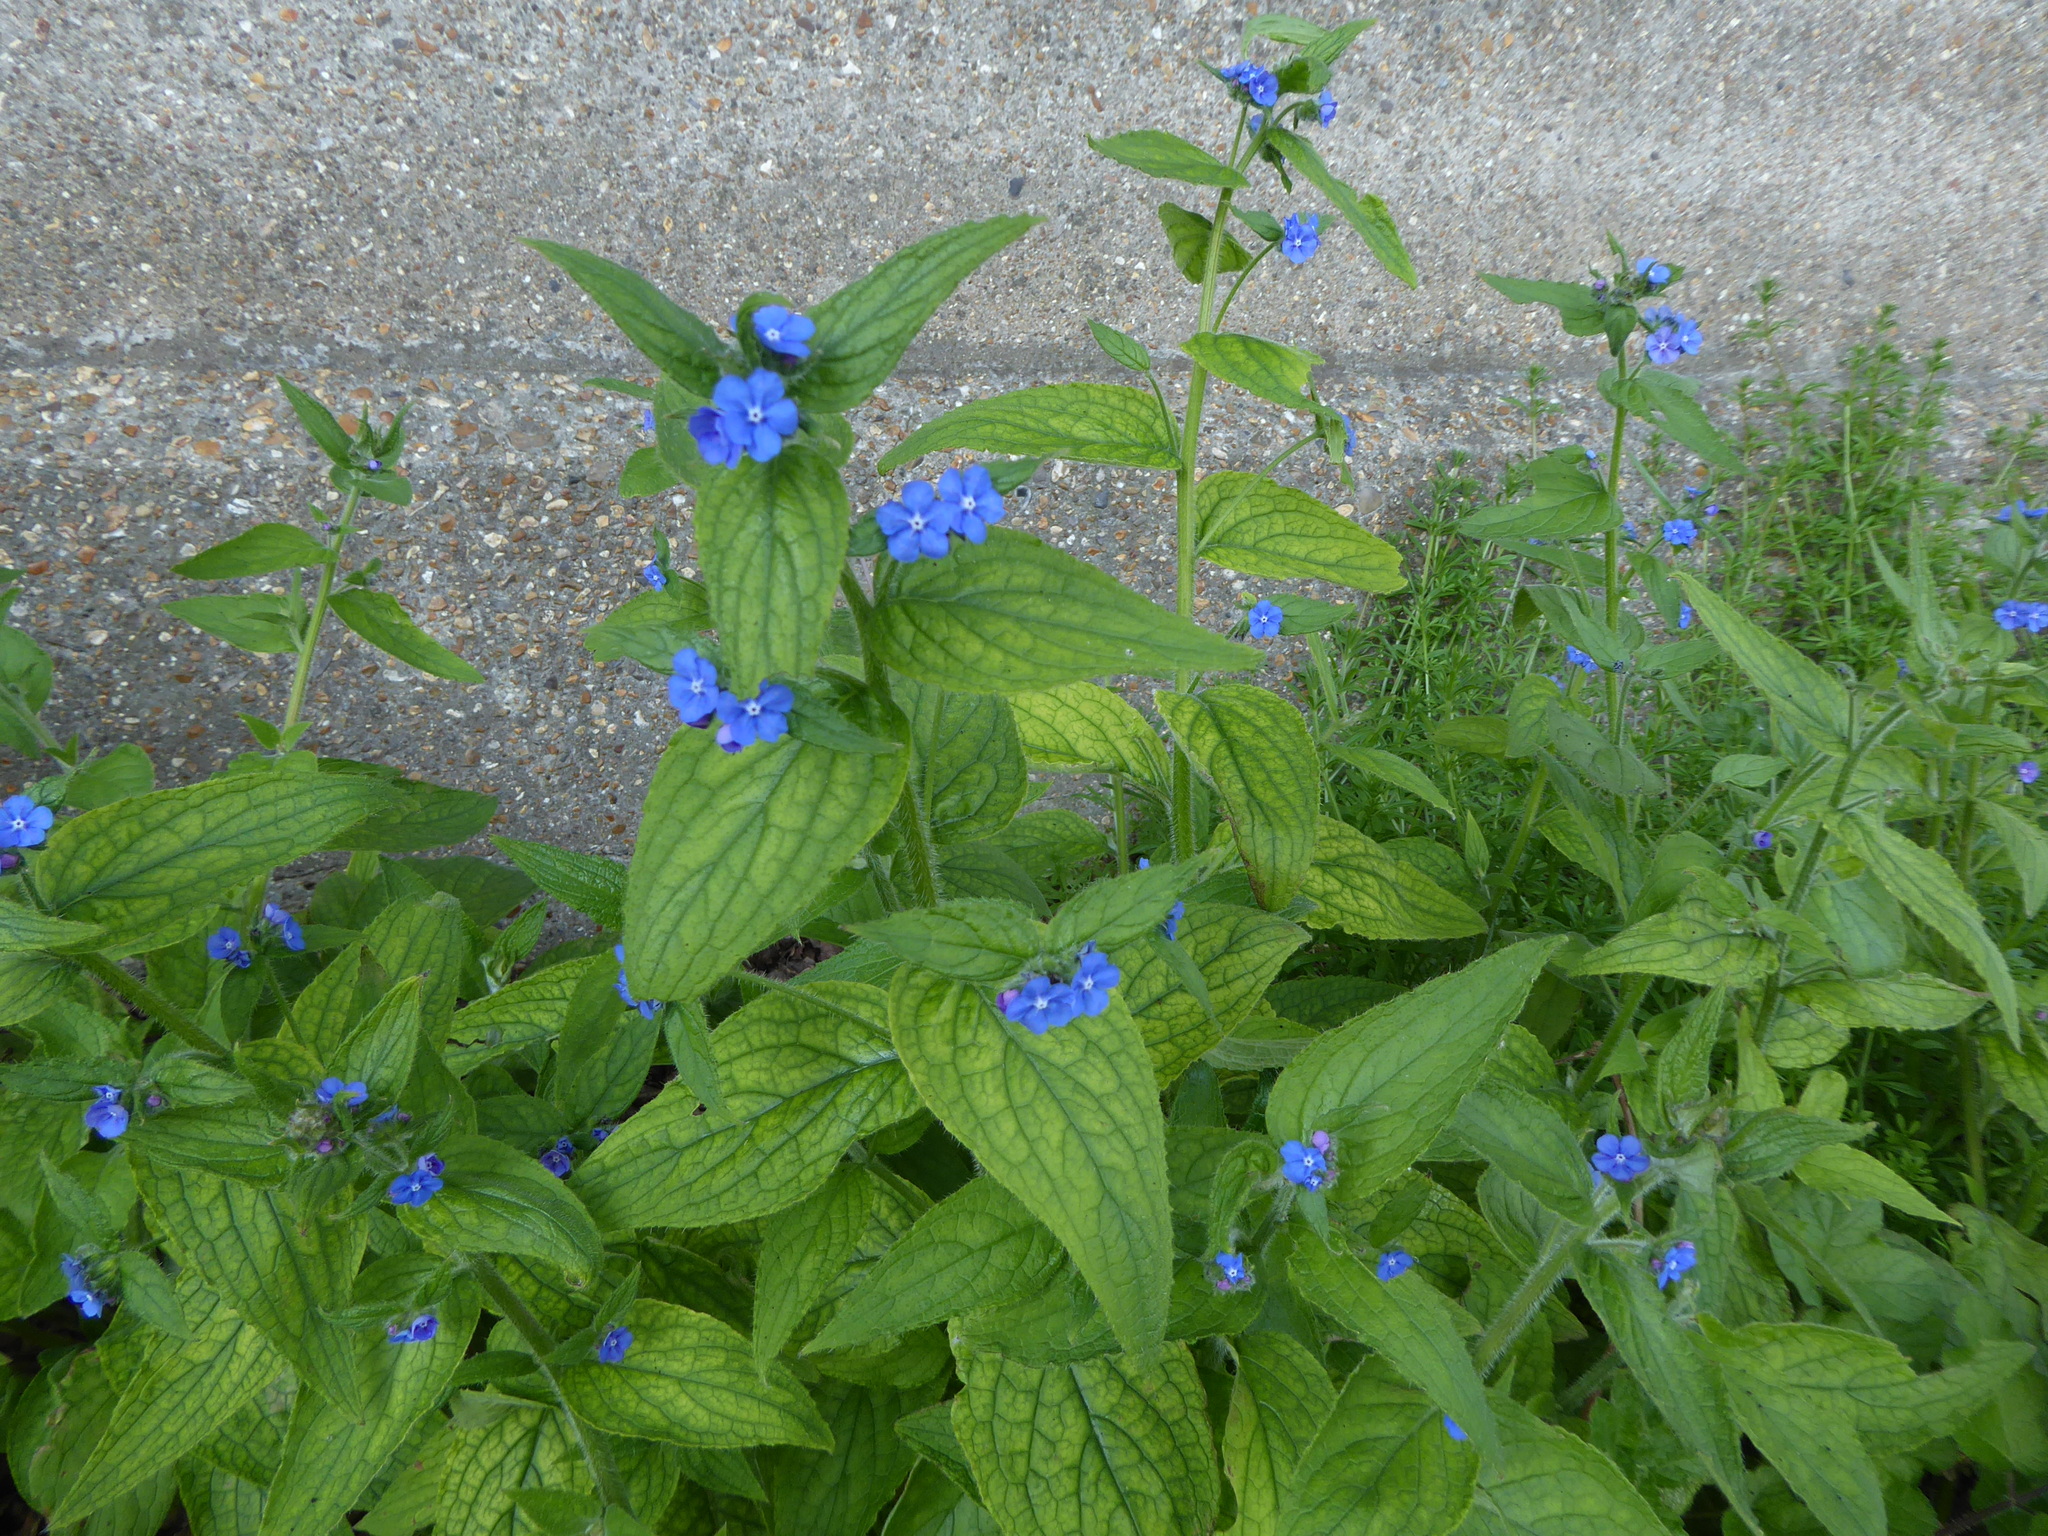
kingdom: Plantae
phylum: Tracheophyta
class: Magnoliopsida
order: Boraginales
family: Boraginaceae
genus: Pentaglottis
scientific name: Pentaglottis sempervirens
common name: Green alkanet
